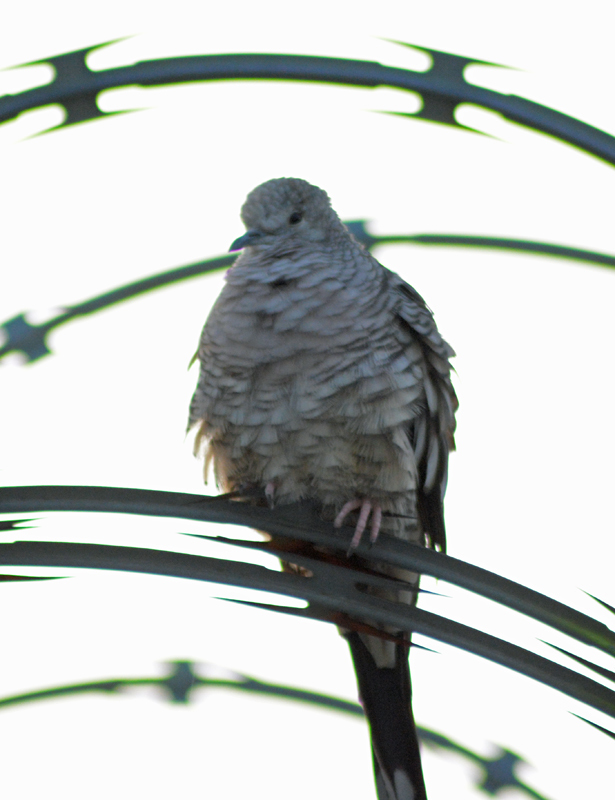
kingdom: Animalia
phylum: Chordata
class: Aves
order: Columbiformes
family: Columbidae
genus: Columbina
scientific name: Columbina inca
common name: Inca dove
